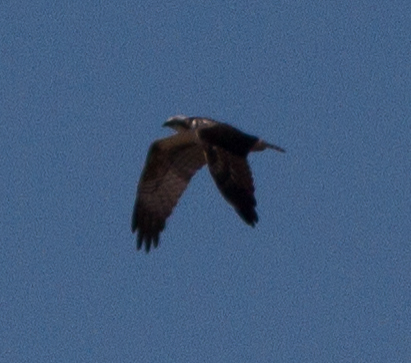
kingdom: Animalia
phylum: Chordata
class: Aves
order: Accipitriformes
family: Pandionidae
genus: Pandion
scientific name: Pandion haliaetus
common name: Osprey
